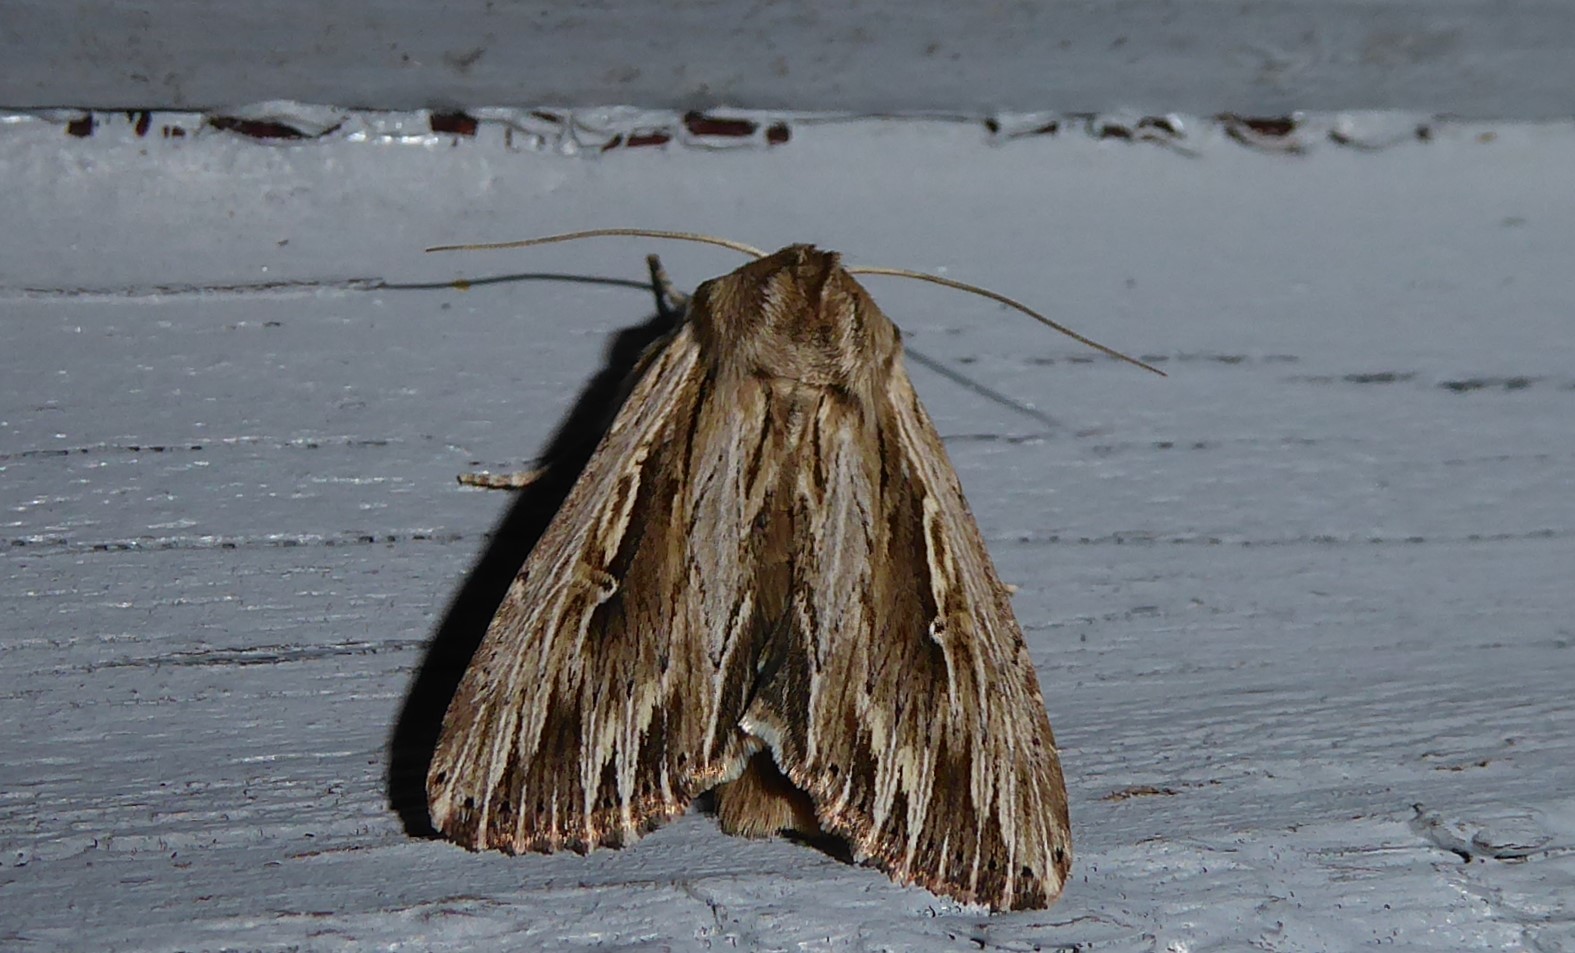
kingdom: Animalia
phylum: Arthropoda
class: Insecta
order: Lepidoptera
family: Noctuidae
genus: Persectania
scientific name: Persectania aversa
